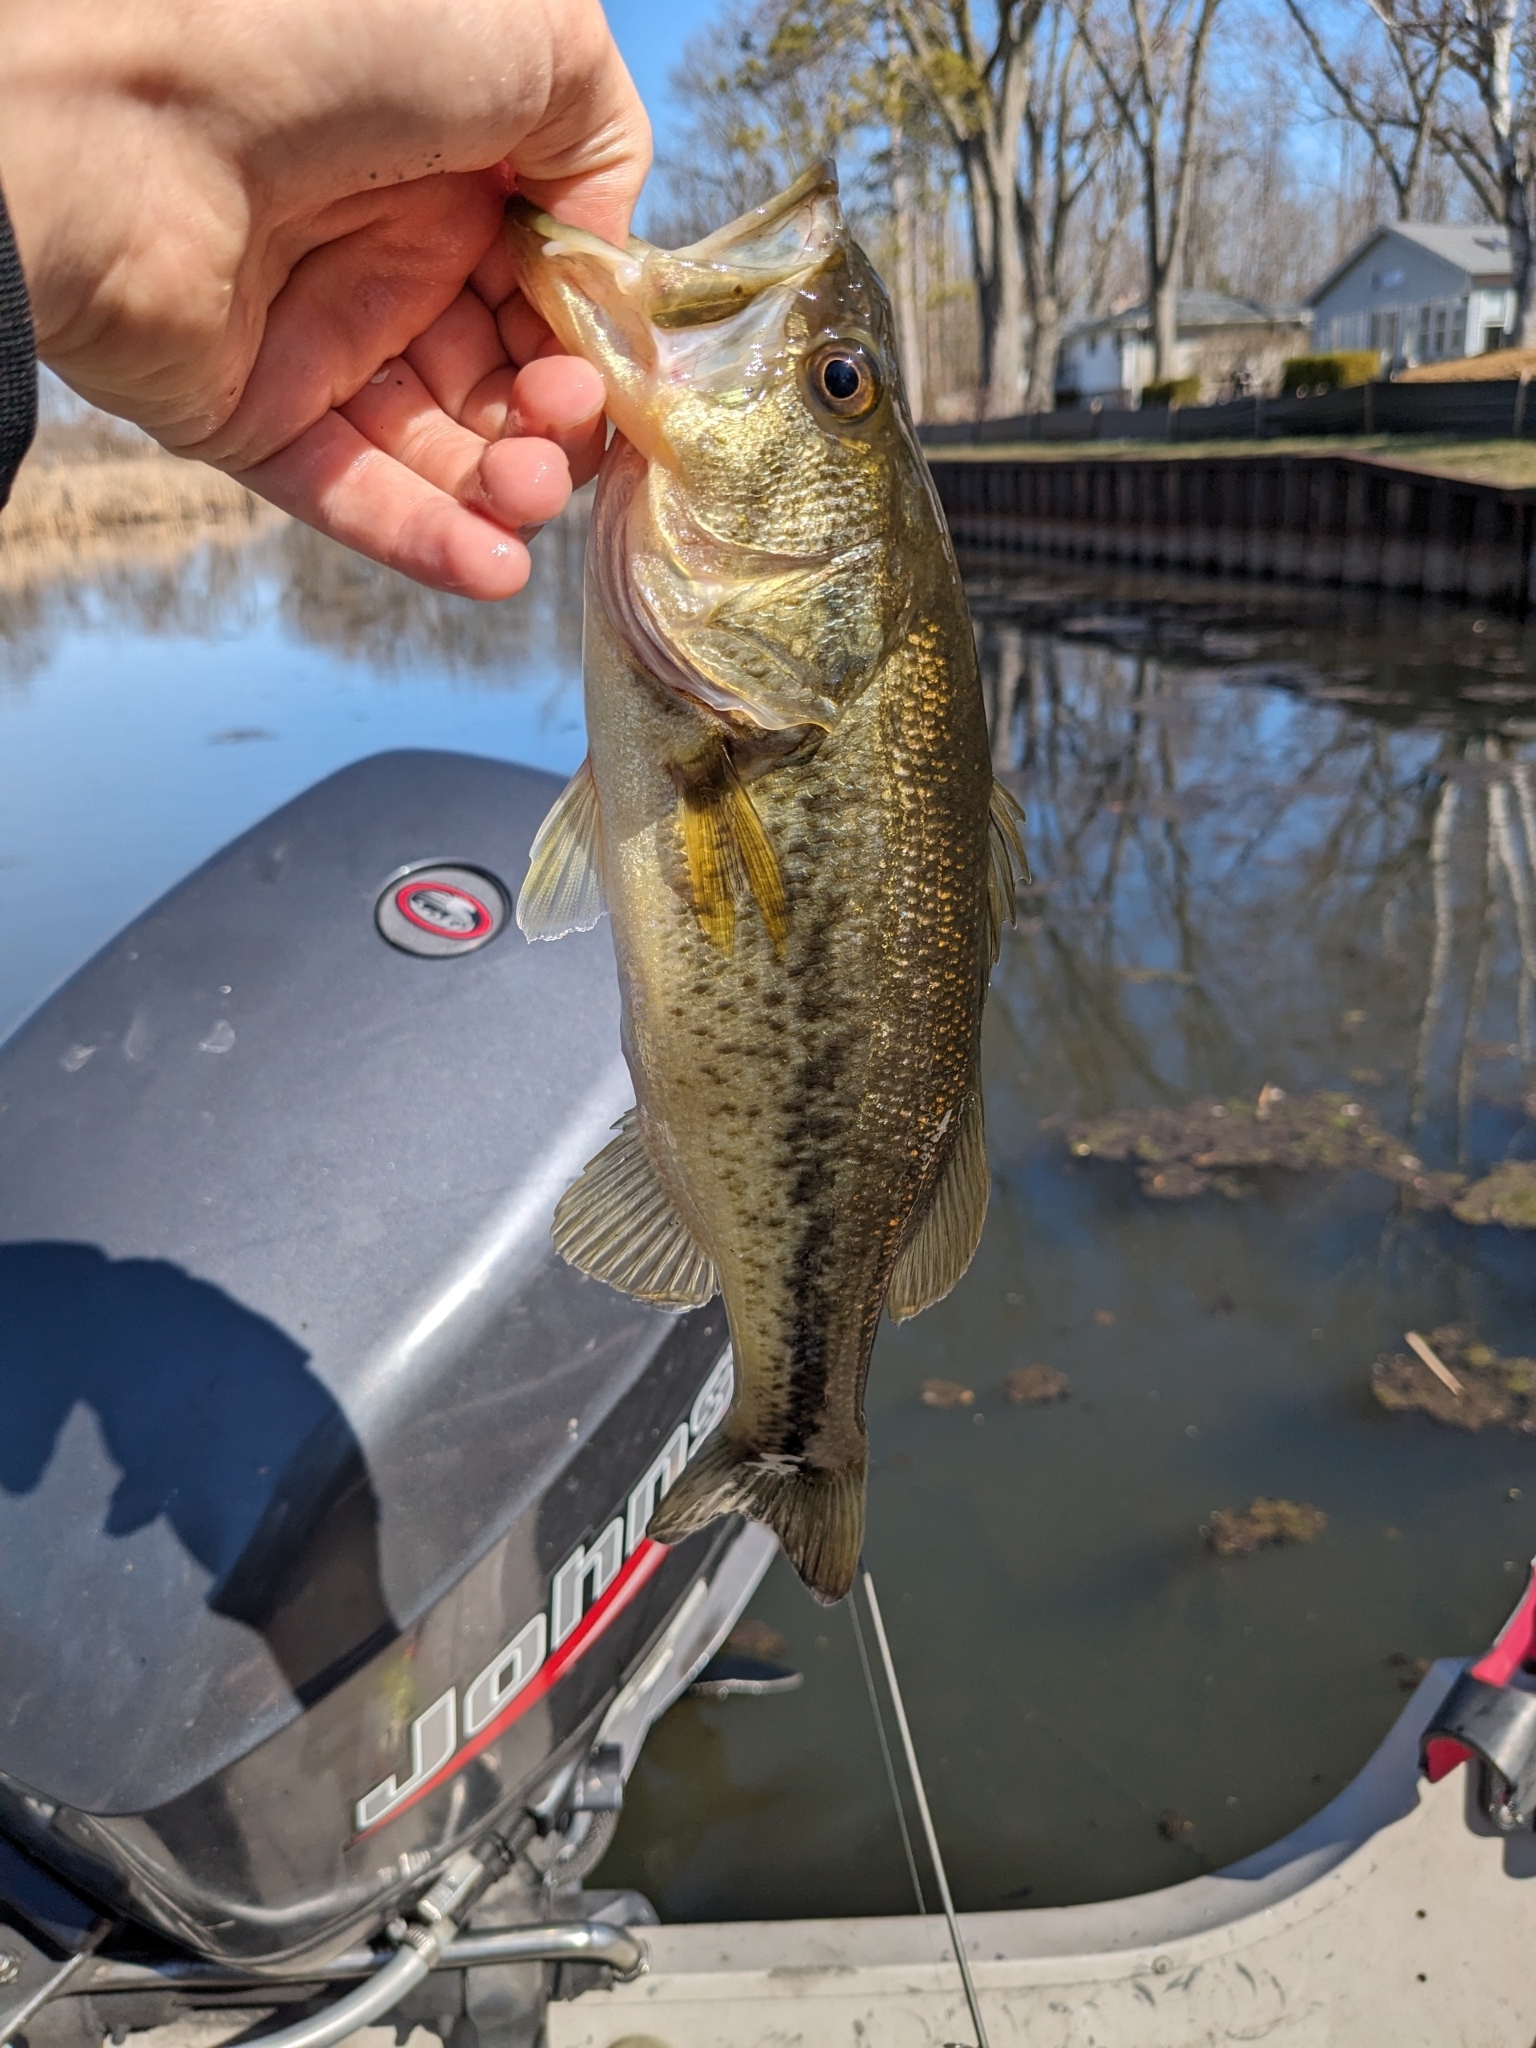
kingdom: Animalia
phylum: Chordata
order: Perciformes
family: Centrarchidae
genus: Micropterus
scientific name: Micropterus
